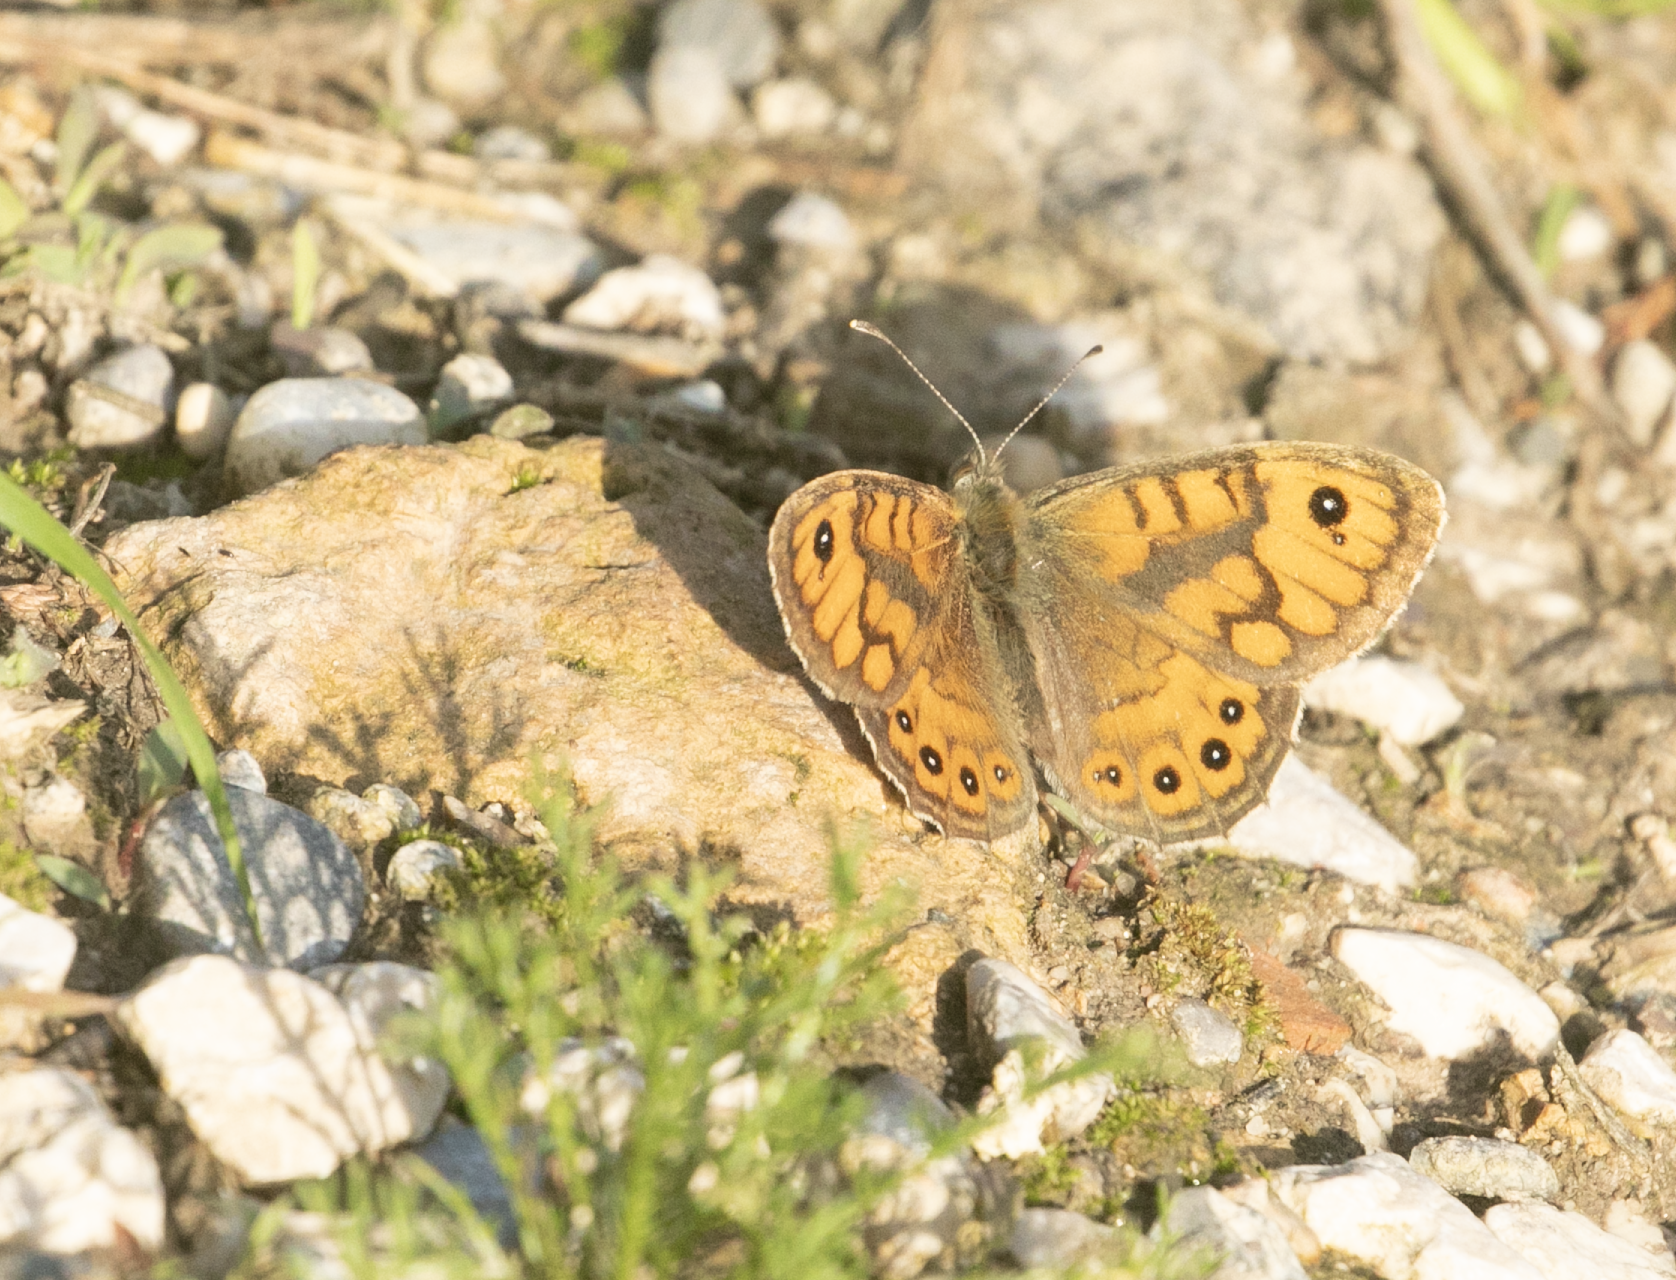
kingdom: Animalia
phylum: Arthropoda
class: Insecta
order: Lepidoptera
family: Nymphalidae
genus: Pararge
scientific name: Pararge Lasiommata megera
